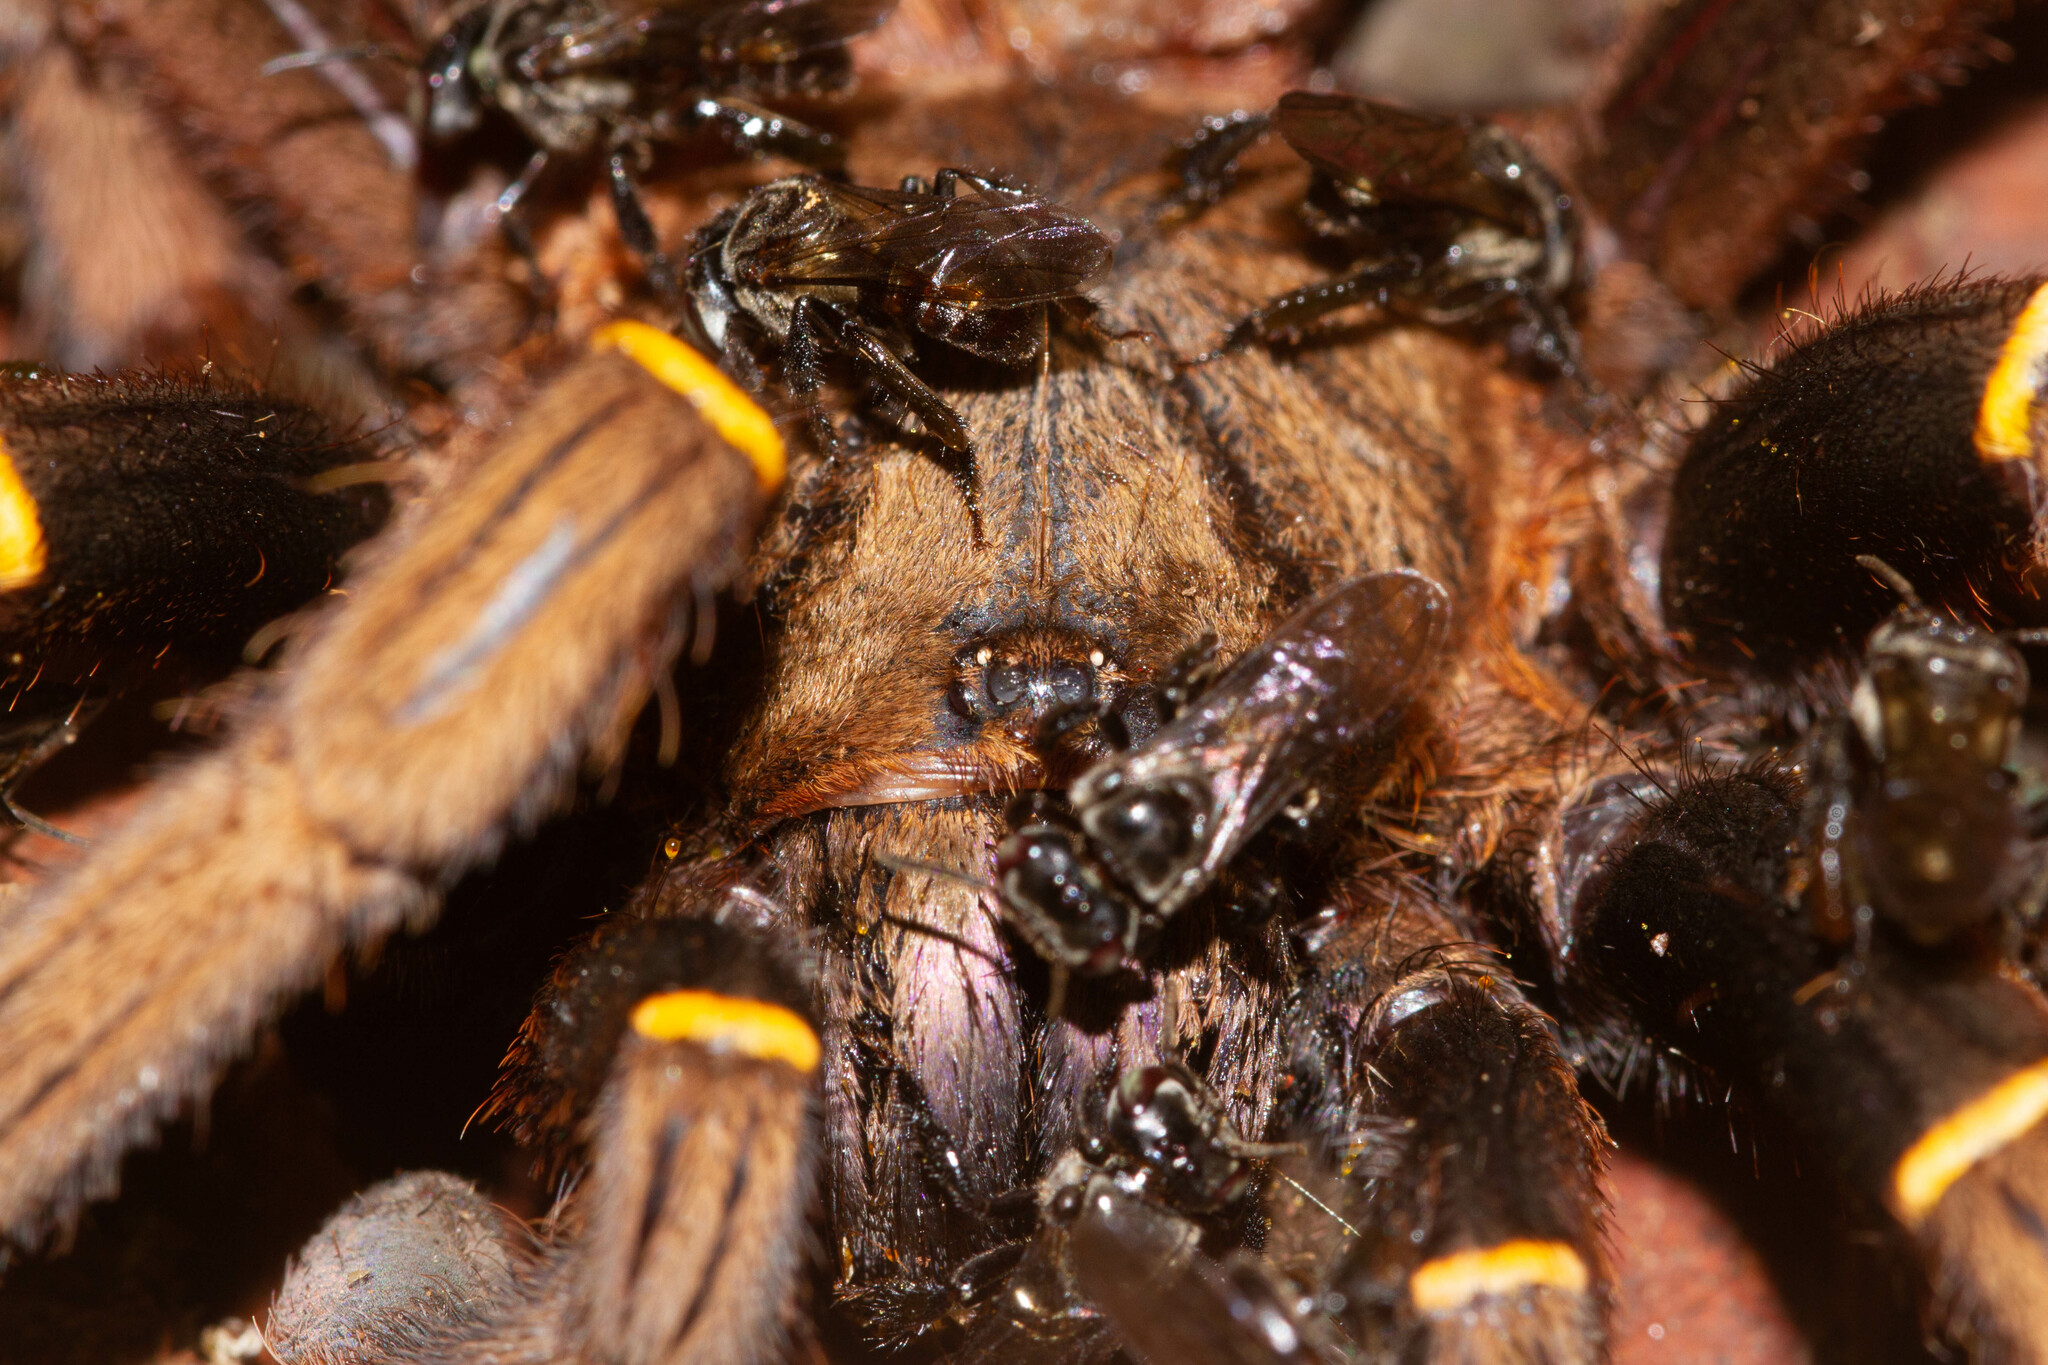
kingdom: Animalia
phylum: Arthropoda
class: Arachnida
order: Araneae
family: Theraphosidae
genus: Ephebopus
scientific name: Ephebopus cyanognathus
